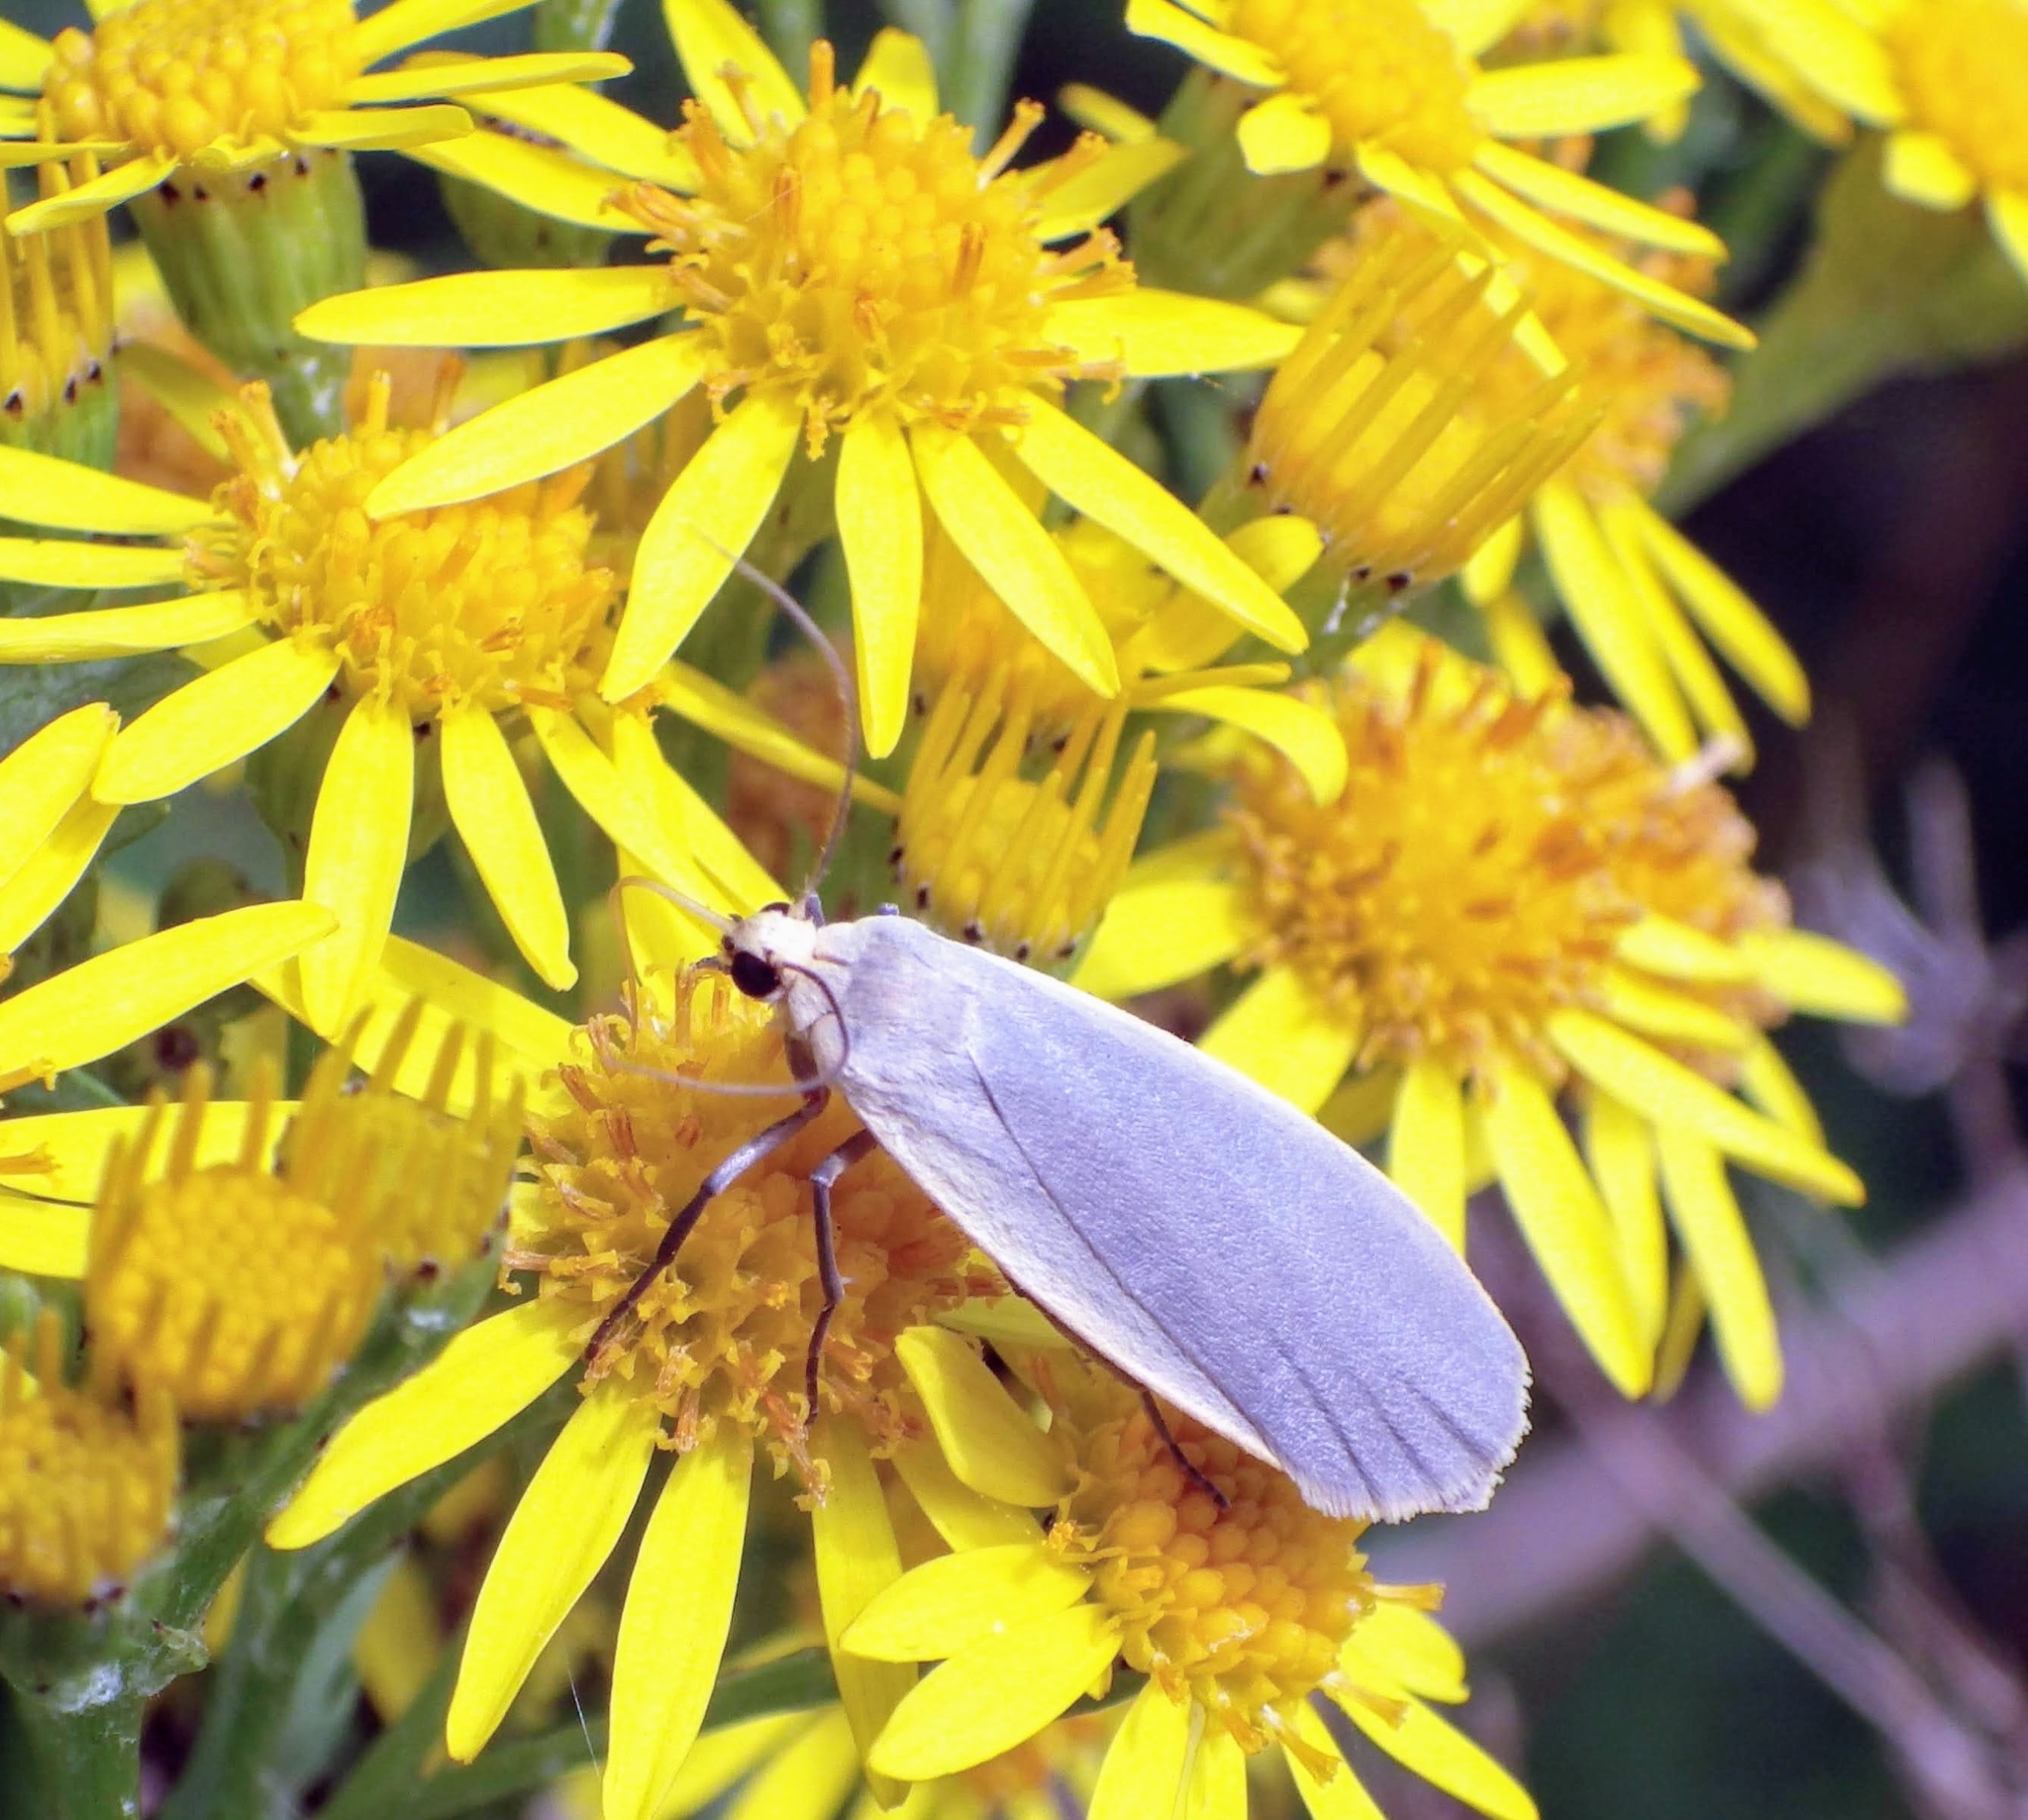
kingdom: Animalia
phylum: Arthropoda
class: Insecta
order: Lepidoptera
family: Erebidae
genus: Collita
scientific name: Collita griseola
